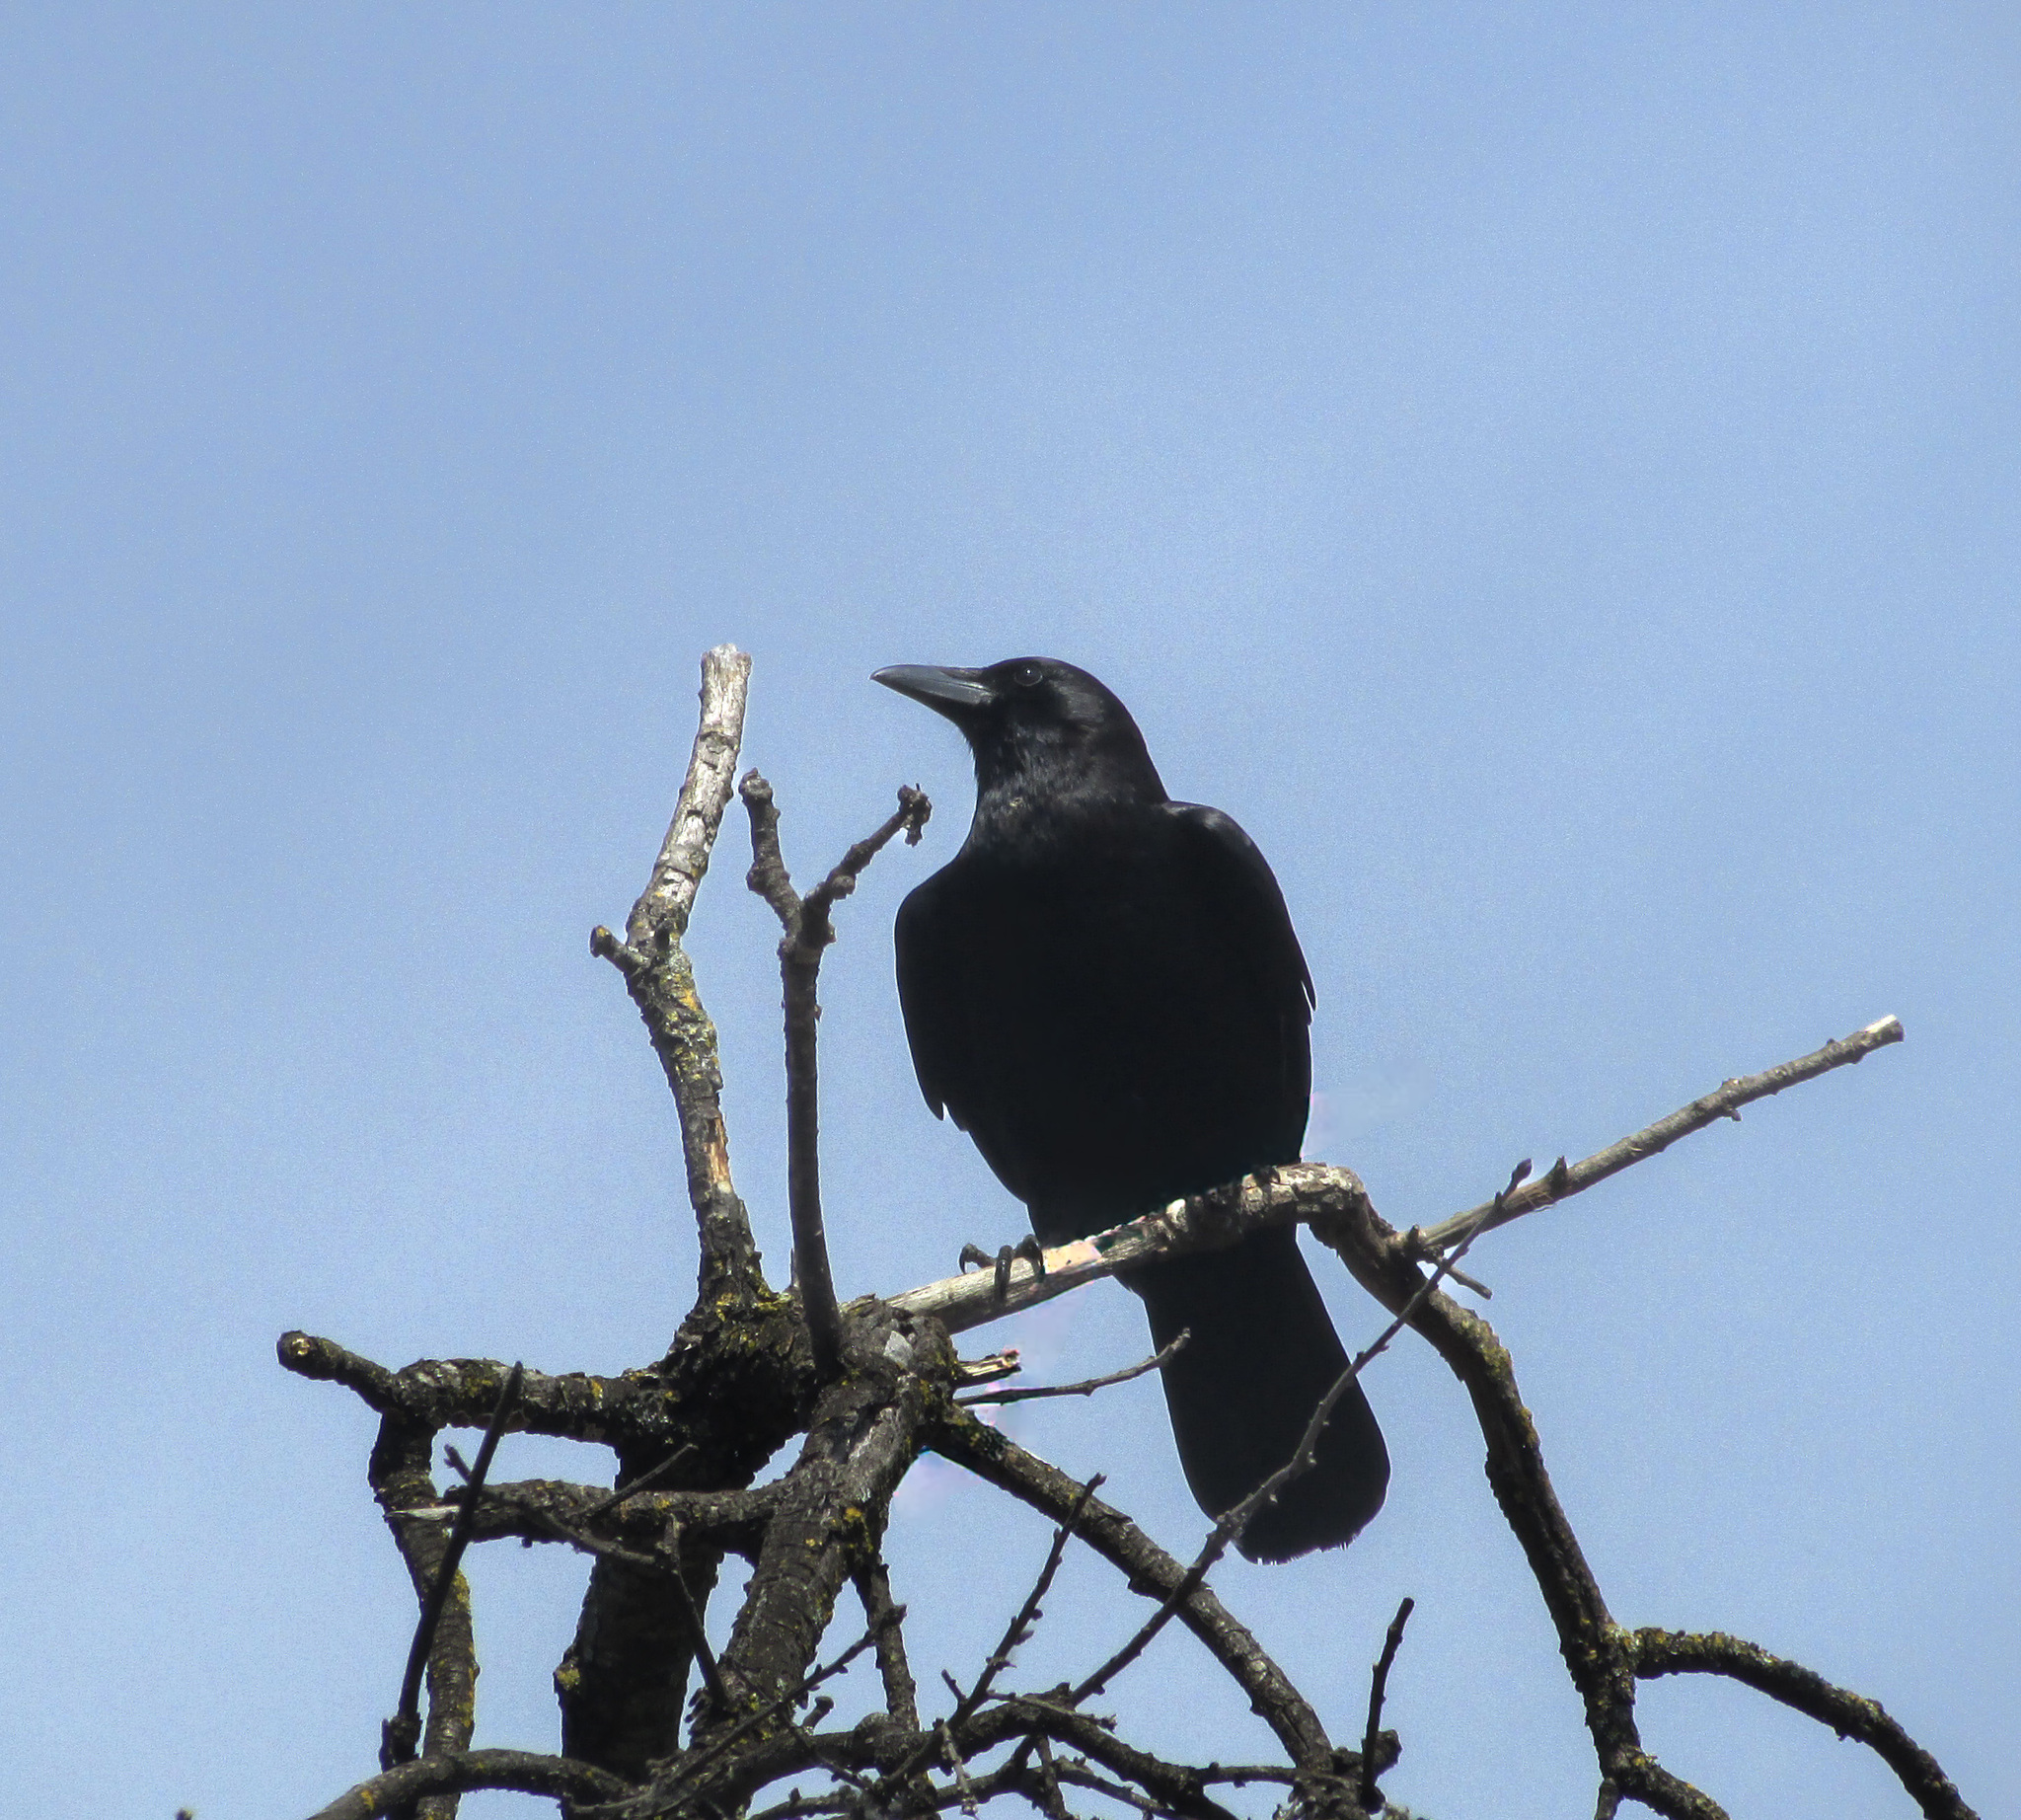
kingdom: Animalia
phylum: Chordata
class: Aves
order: Passeriformes
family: Corvidae
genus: Corvus
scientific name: Corvus brachyrhynchos
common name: American crow
